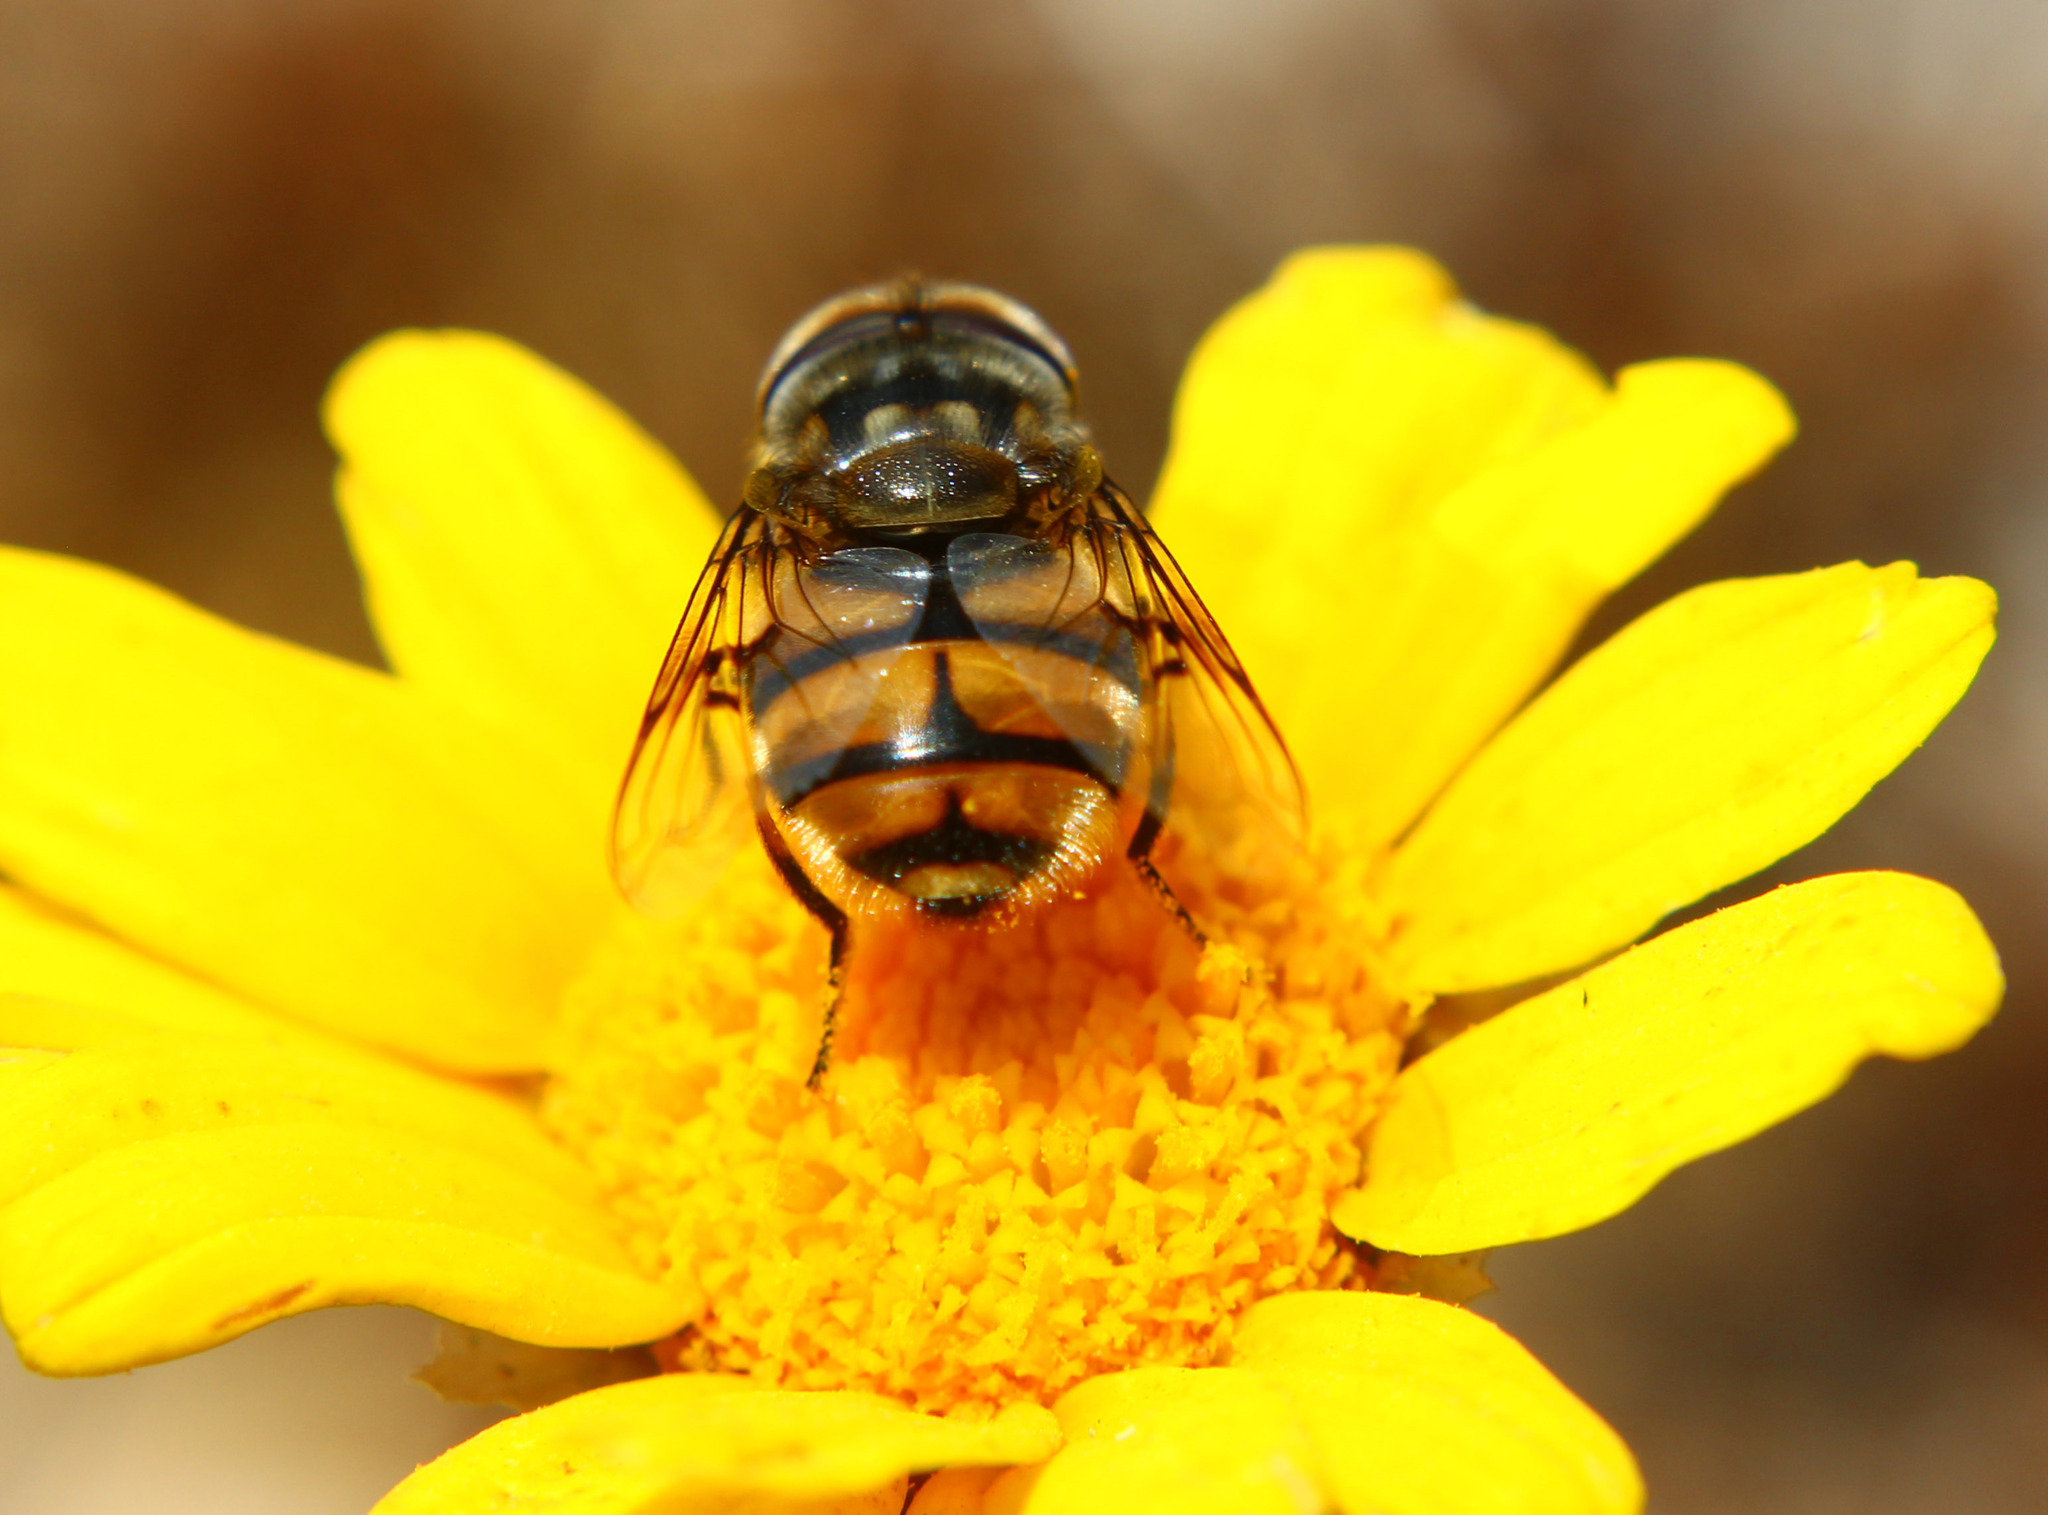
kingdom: Animalia
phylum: Arthropoda
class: Insecta
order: Diptera
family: Syrphidae
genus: Copestylum
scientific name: Copestylum avidum
